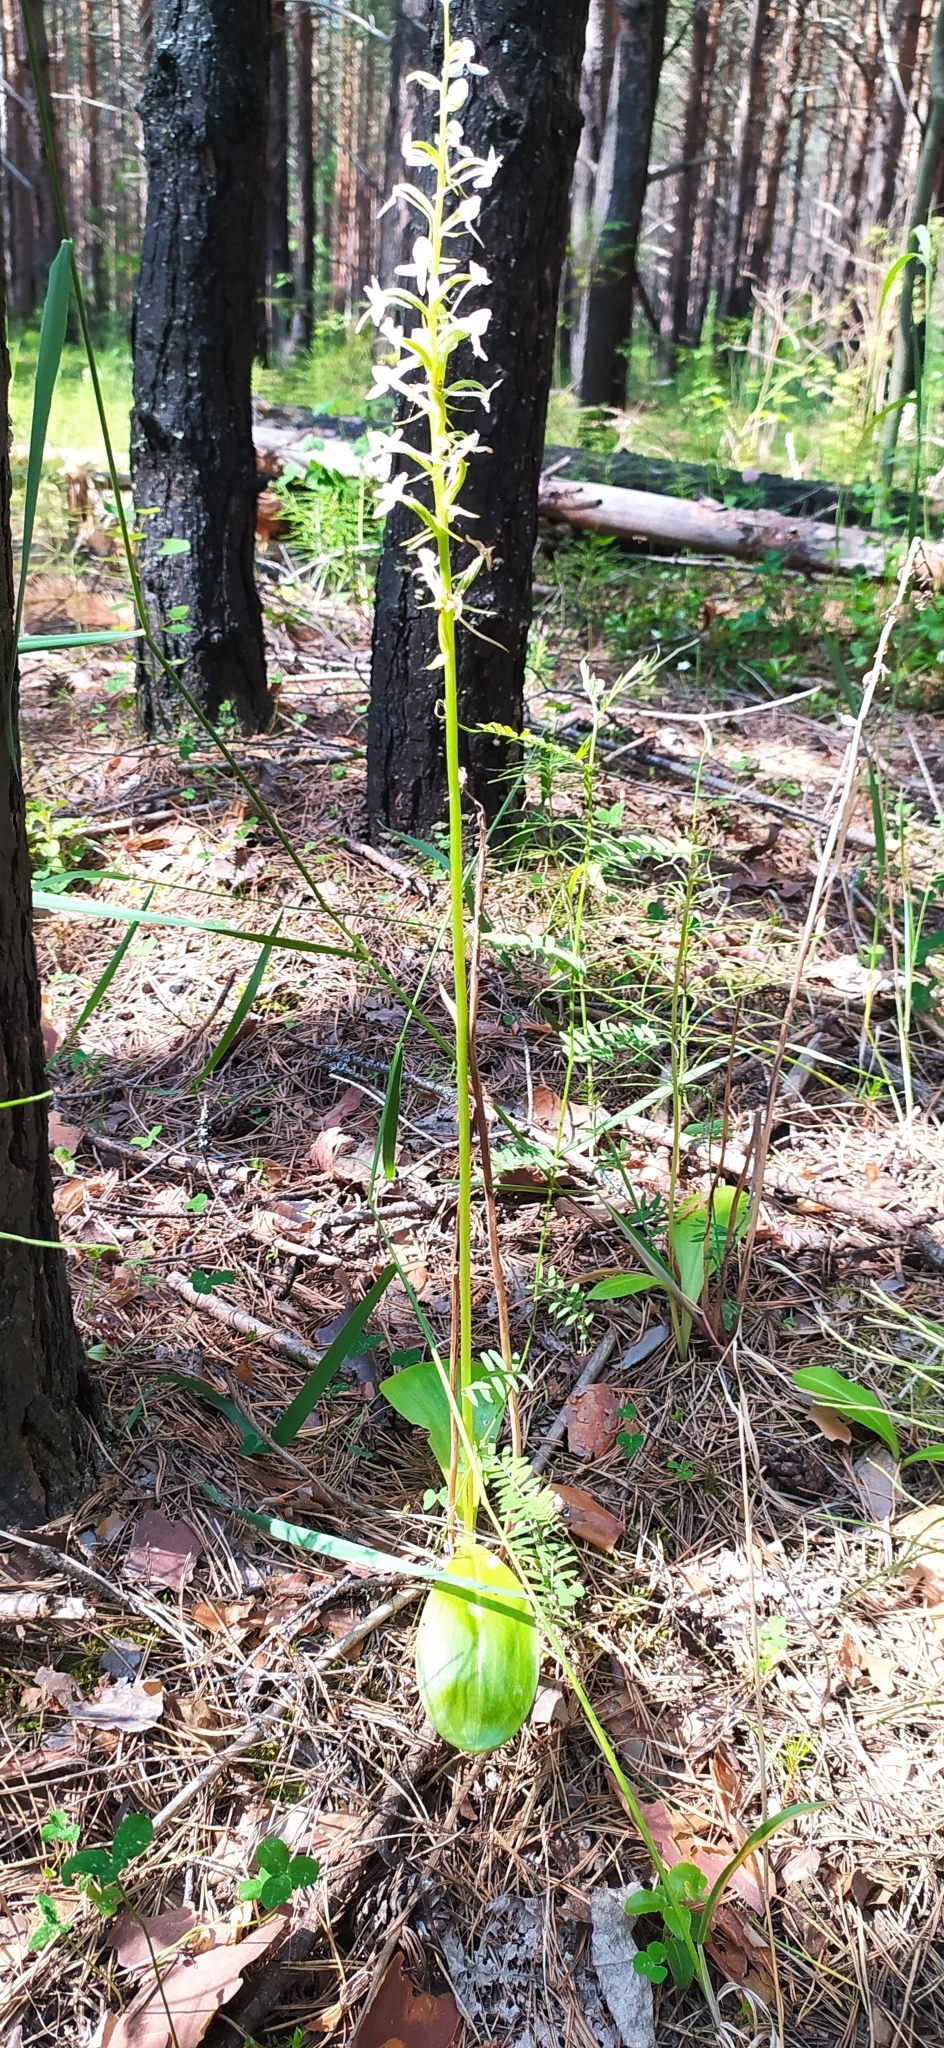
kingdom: Plantae
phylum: Tracheophyta
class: Liliopsida
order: Asparagales
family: Orchidaceae
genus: Platanthera
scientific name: Platanthera bifolia
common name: Lesser butterfly-orchid
